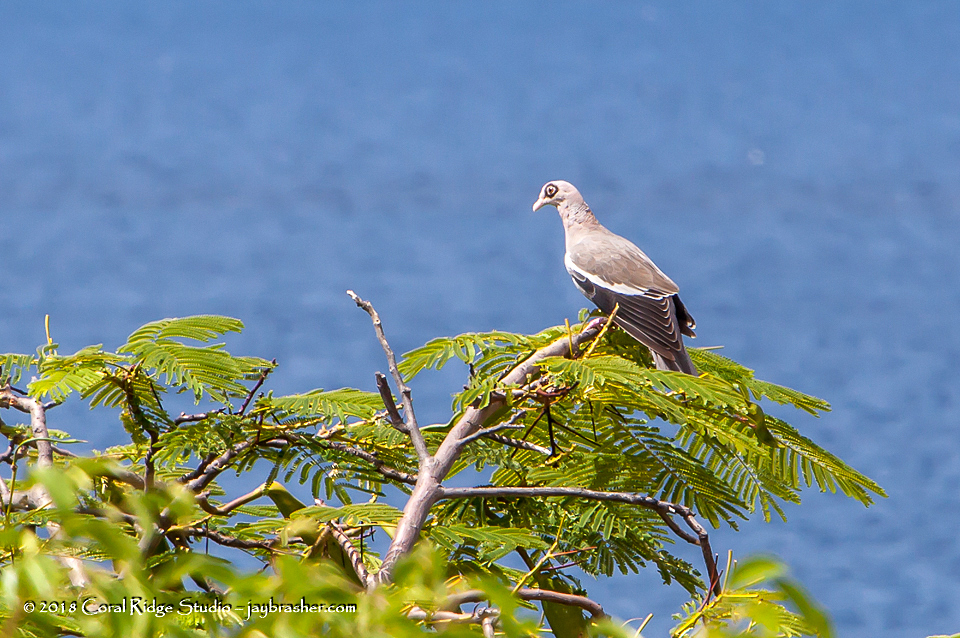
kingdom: Animalia
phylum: Chordata
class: Aves
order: Columbiformes
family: Columbidae
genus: Patagioenas
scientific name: Patagioenas corensis
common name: Bare-eyed pigeon
